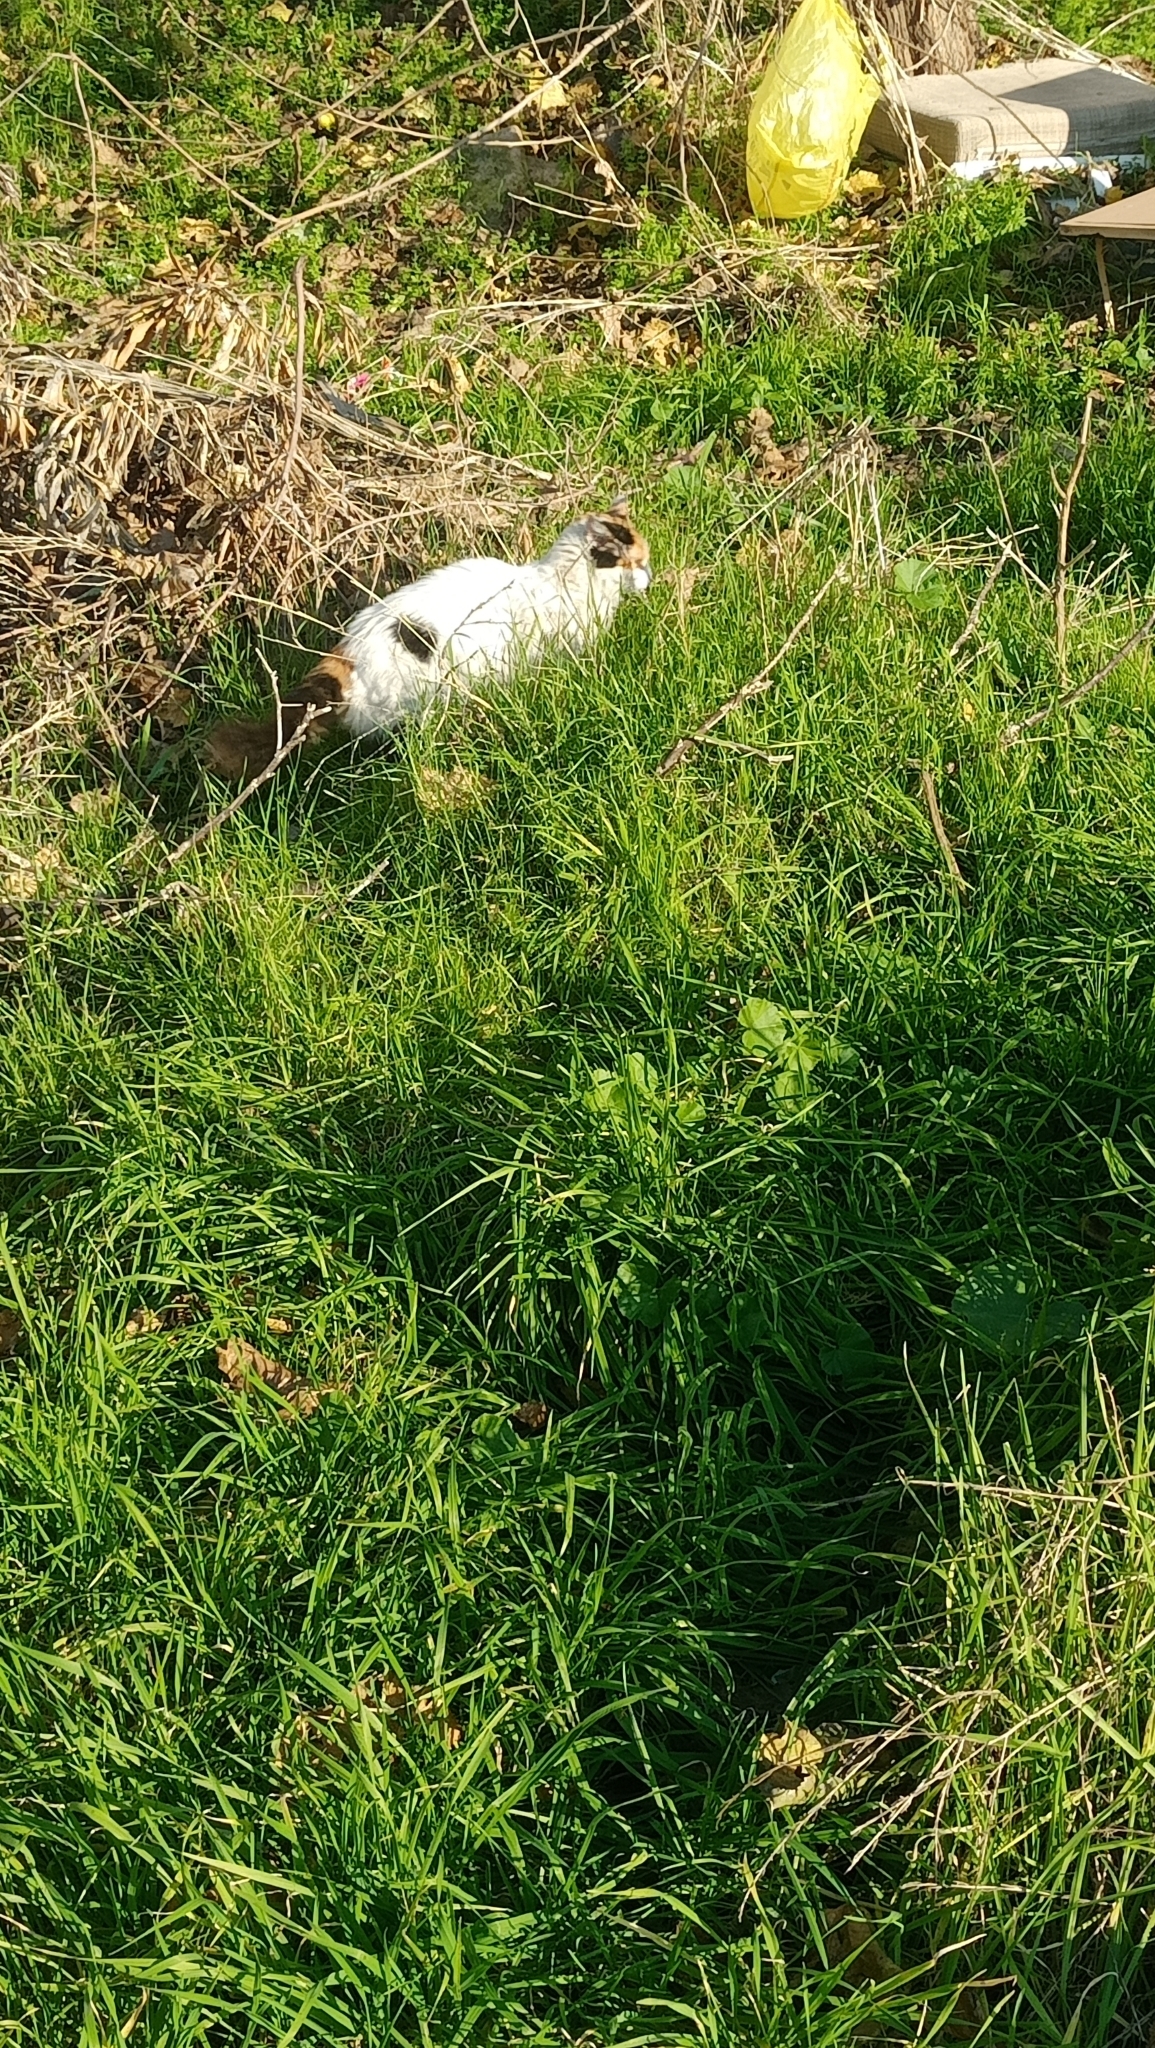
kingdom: Animalia
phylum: Chordata
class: Mammalia
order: Carnivora
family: Felidae
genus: Felis
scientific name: Felis catus
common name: Domestic cat
